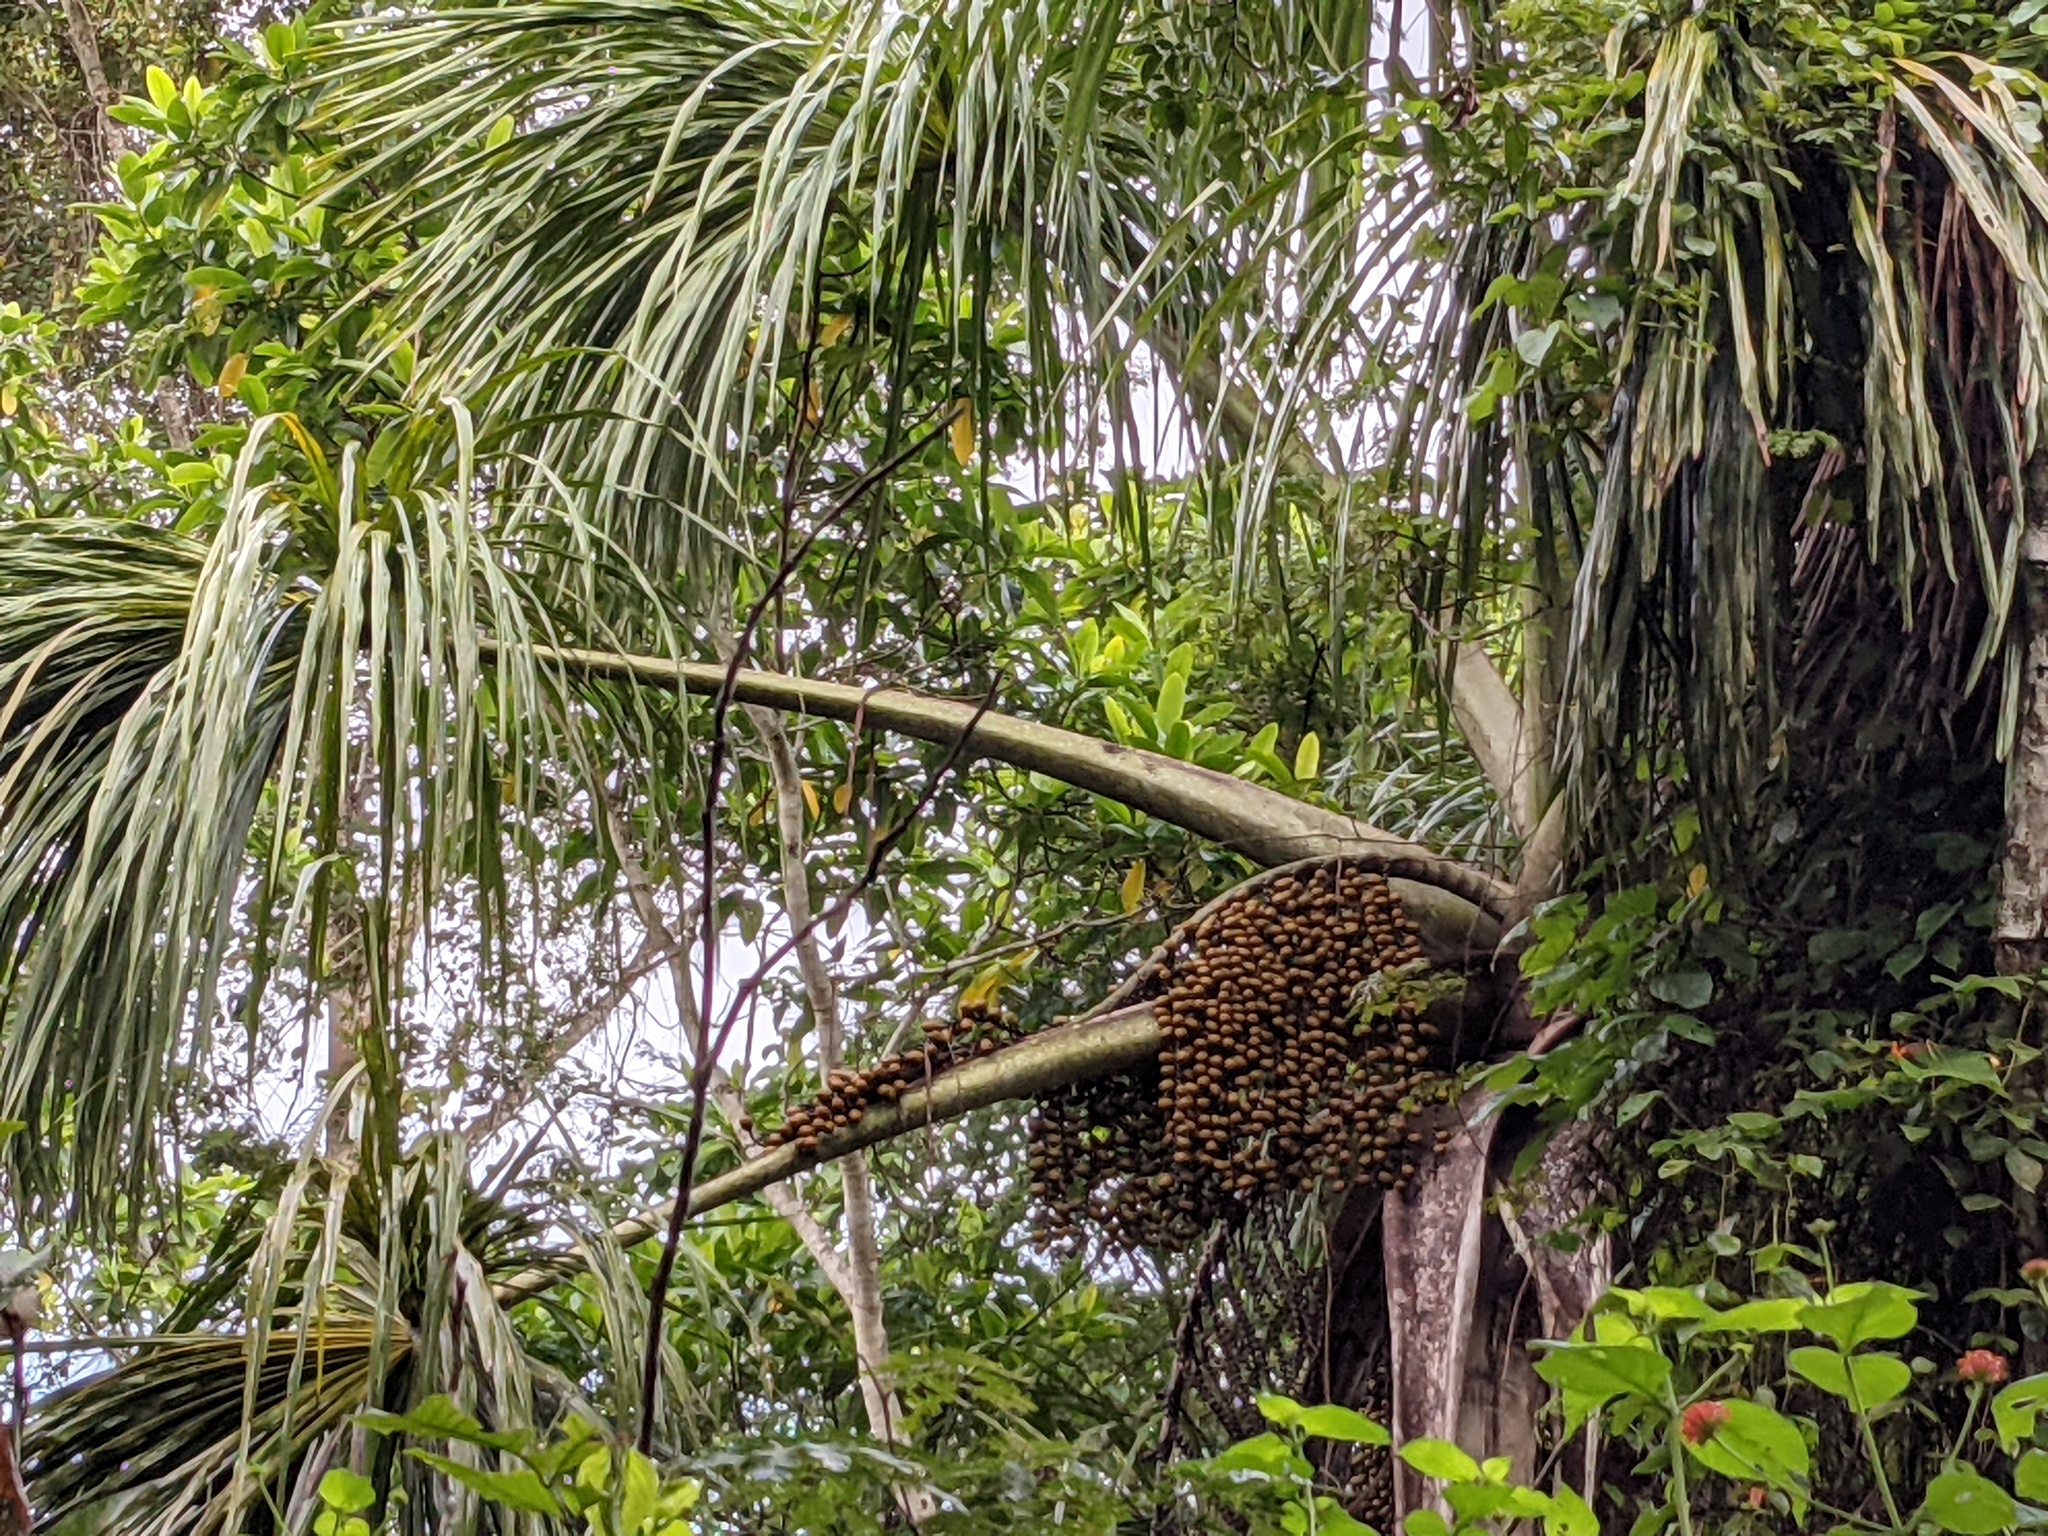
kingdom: Plantae
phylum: Tracheophyta
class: Liliopsida
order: Arecales
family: Arecaceae
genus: Mauritia
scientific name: Mauritia flexuosa
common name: Tree-of-life
